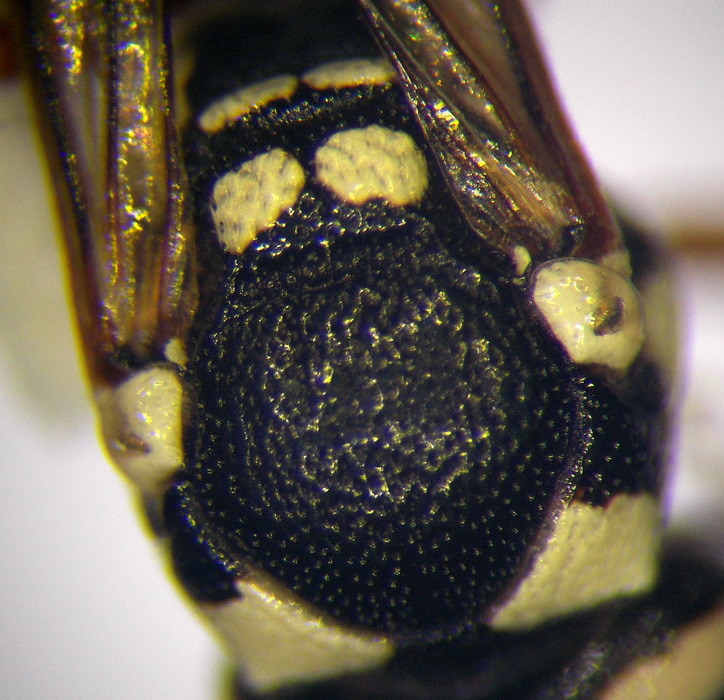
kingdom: Animalia
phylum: Arthropoda
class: Insecta
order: Hymenoptera
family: Eumenidae
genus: Pterocheilus
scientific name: Pterocheilus phaleratus
